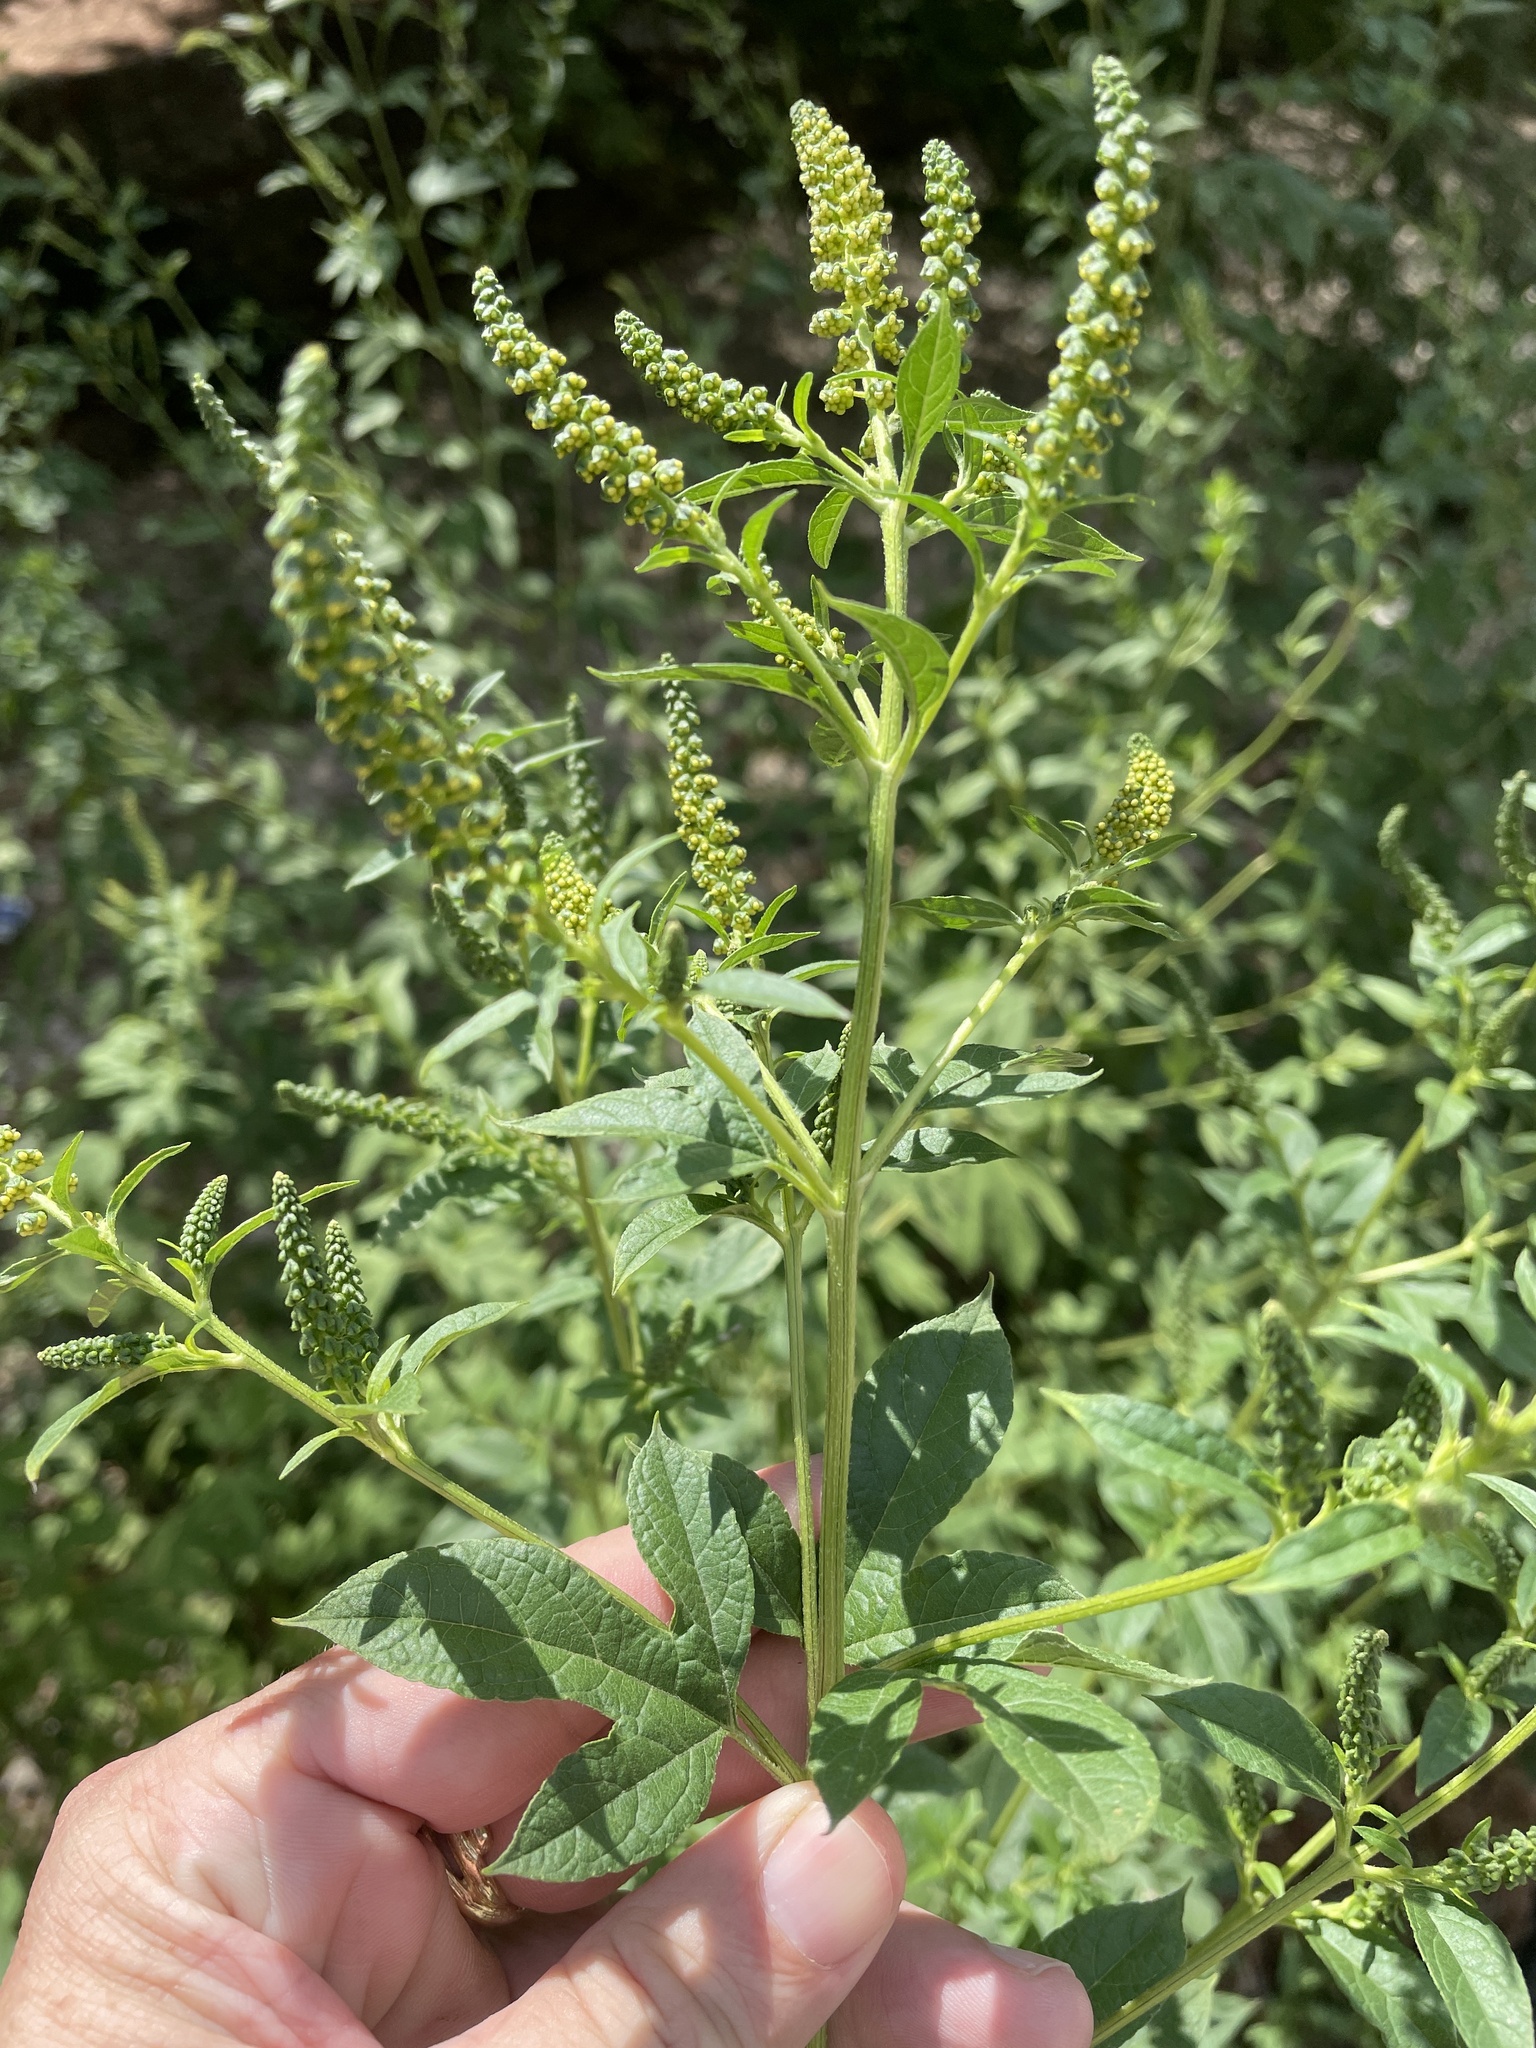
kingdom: Plantae
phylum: Tracheophyta
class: Magnoliopsida
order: Asterales
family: Asteraceae
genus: Ambrosia
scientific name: Ambrosia trifida
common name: Giant ragweed
